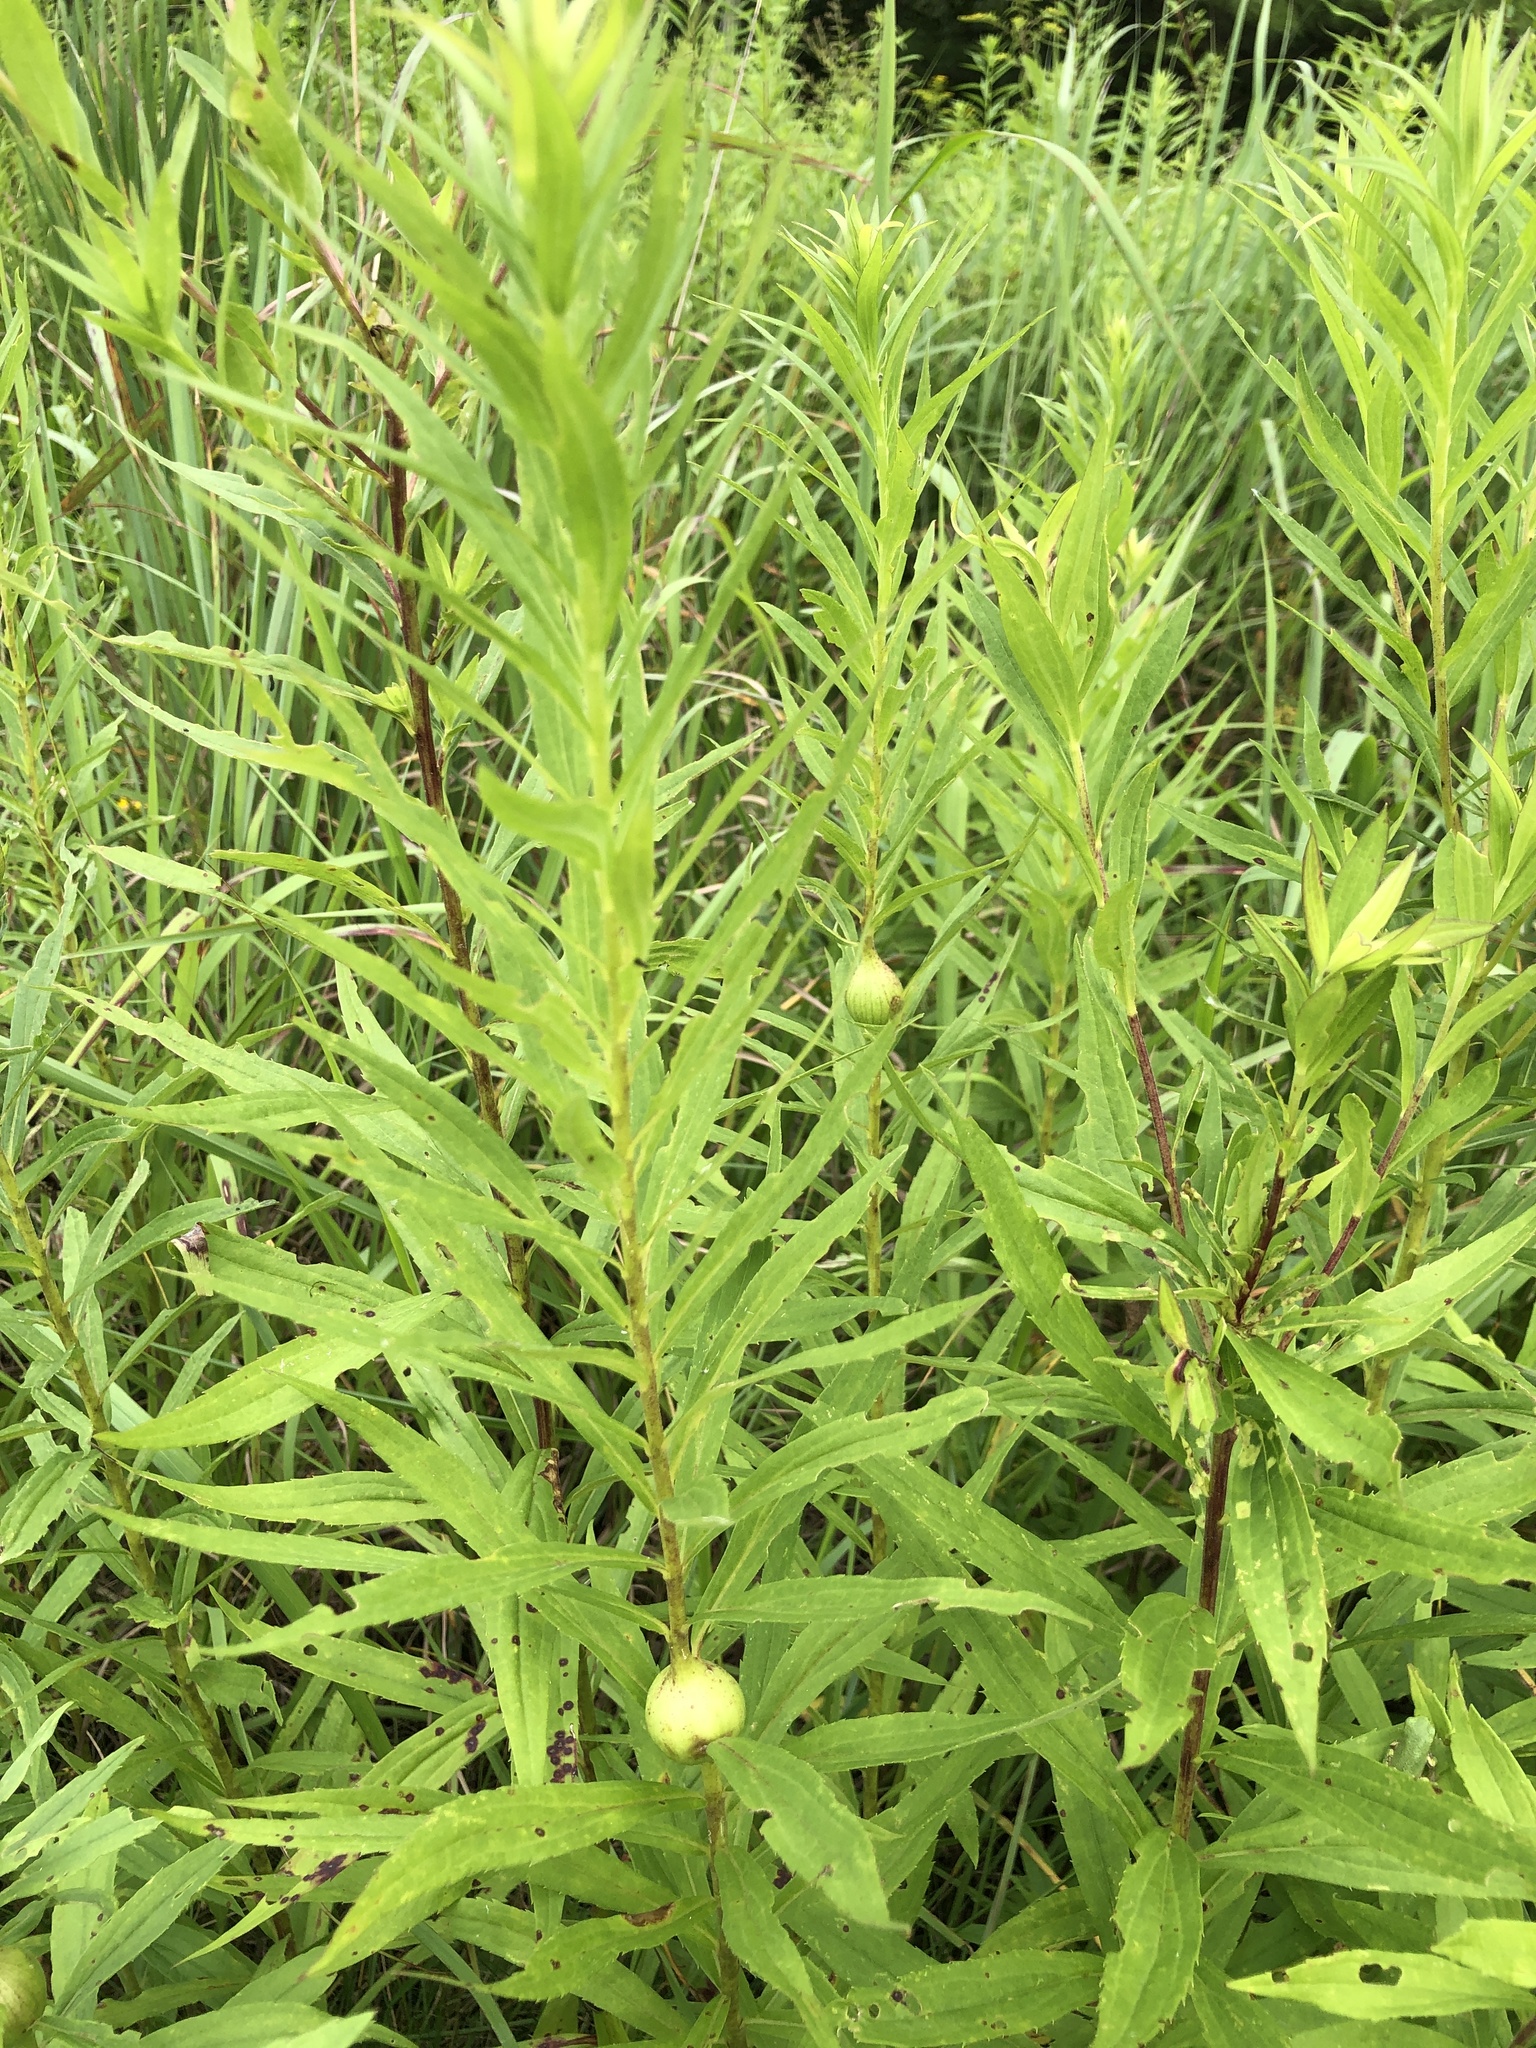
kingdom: Animalia
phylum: Arthropoda
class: Insecta
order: Diptera
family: Tephritidae
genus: Eurosta
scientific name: Eurosta solidaginis
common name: Goldenrod gall fly
